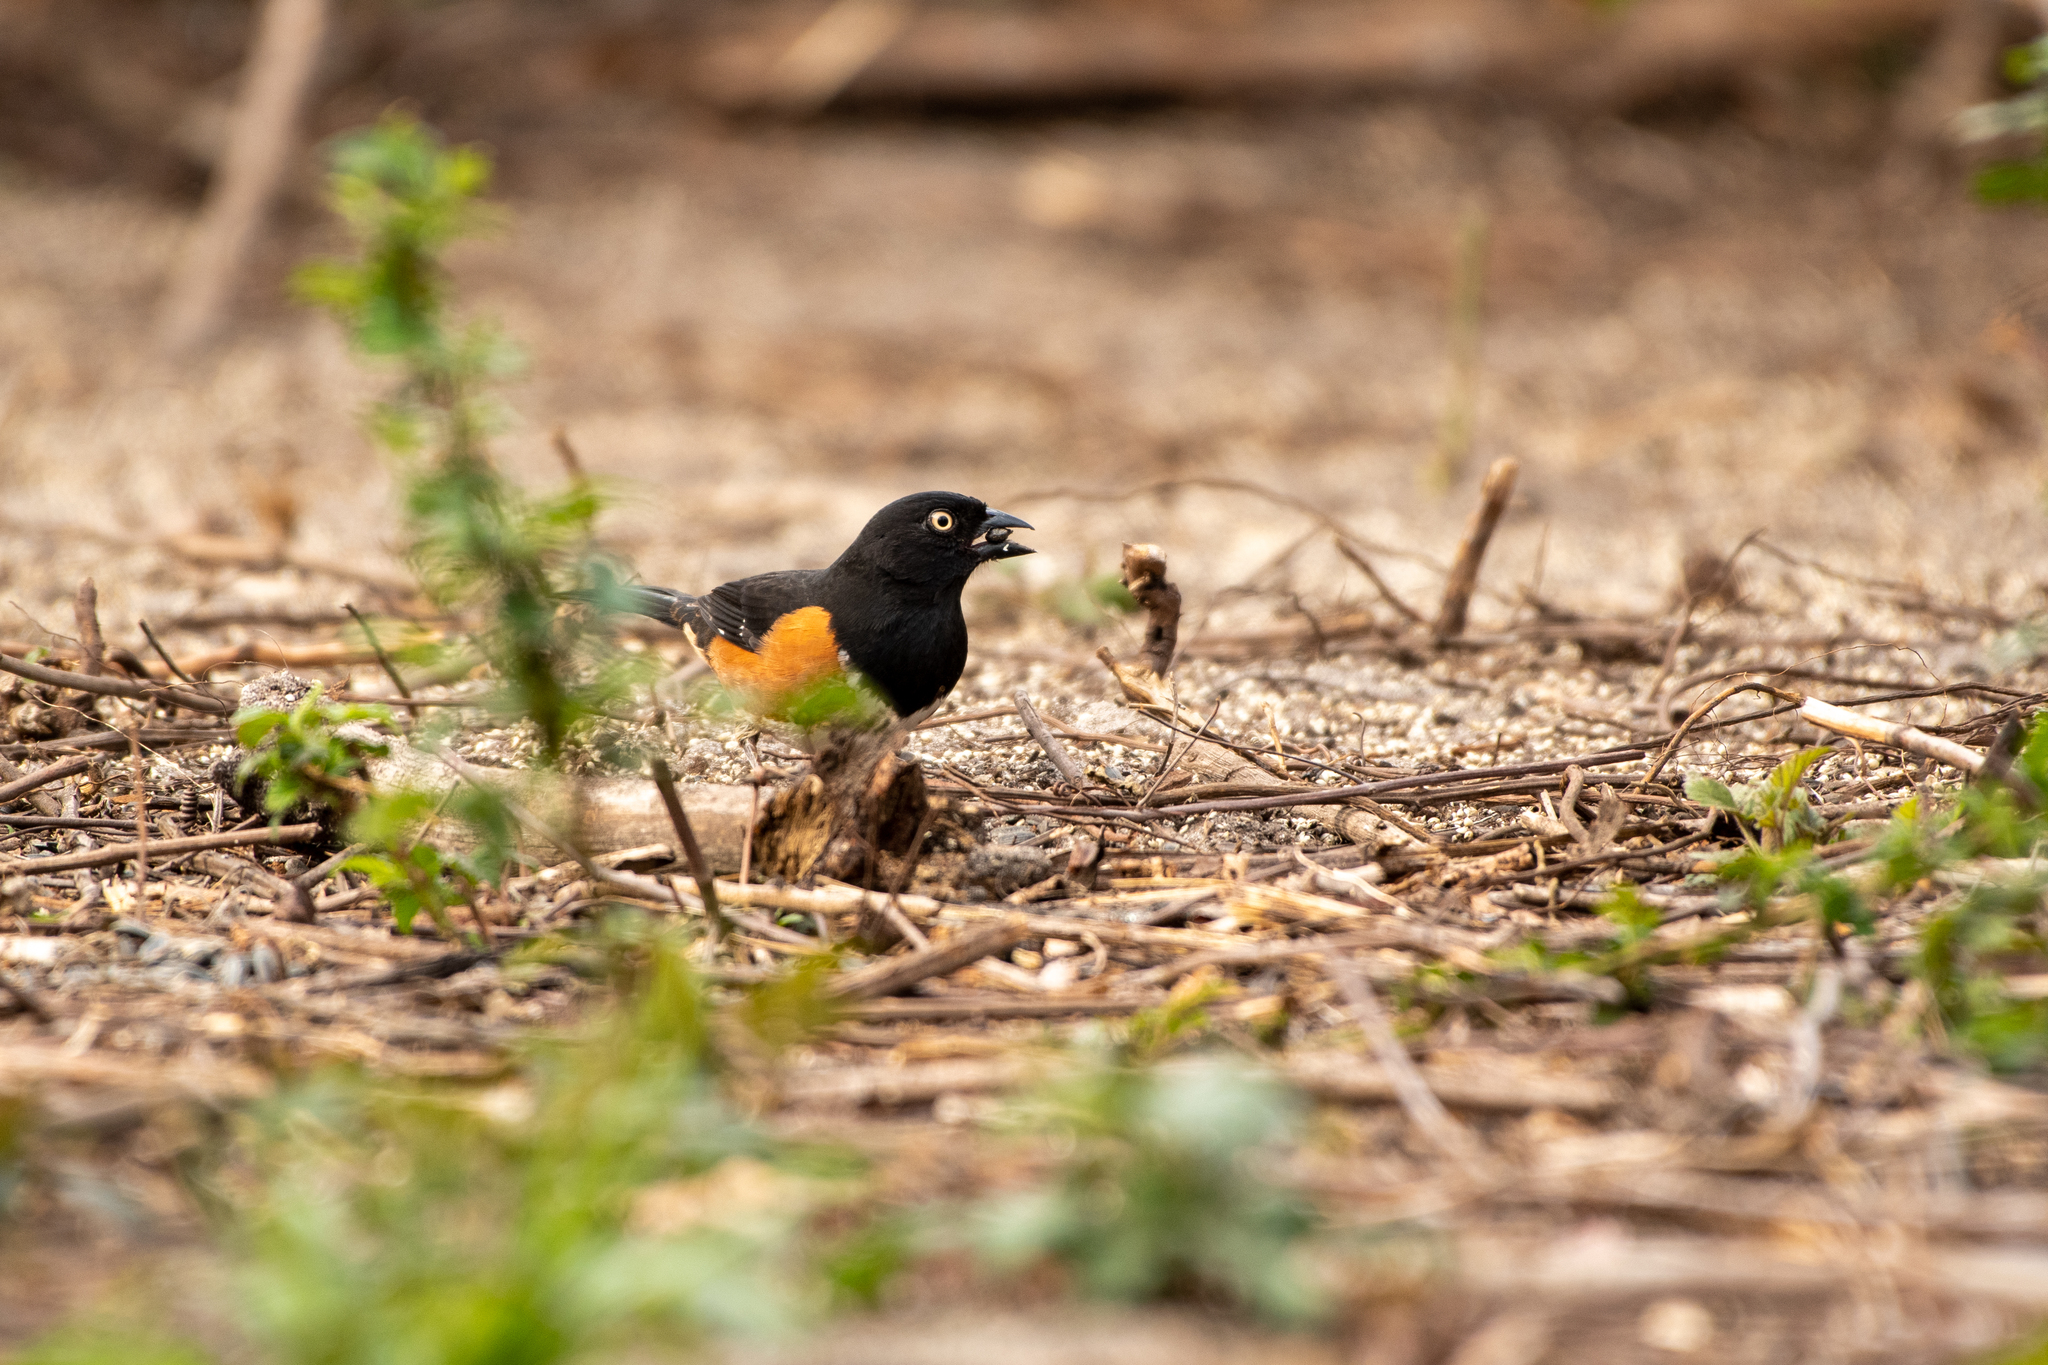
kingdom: Animalia
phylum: Chordata
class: Aves
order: Passeriformes
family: Passerellidae
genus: Pipilo
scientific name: Pipilo erythrophthalmus
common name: Eastern towhee
